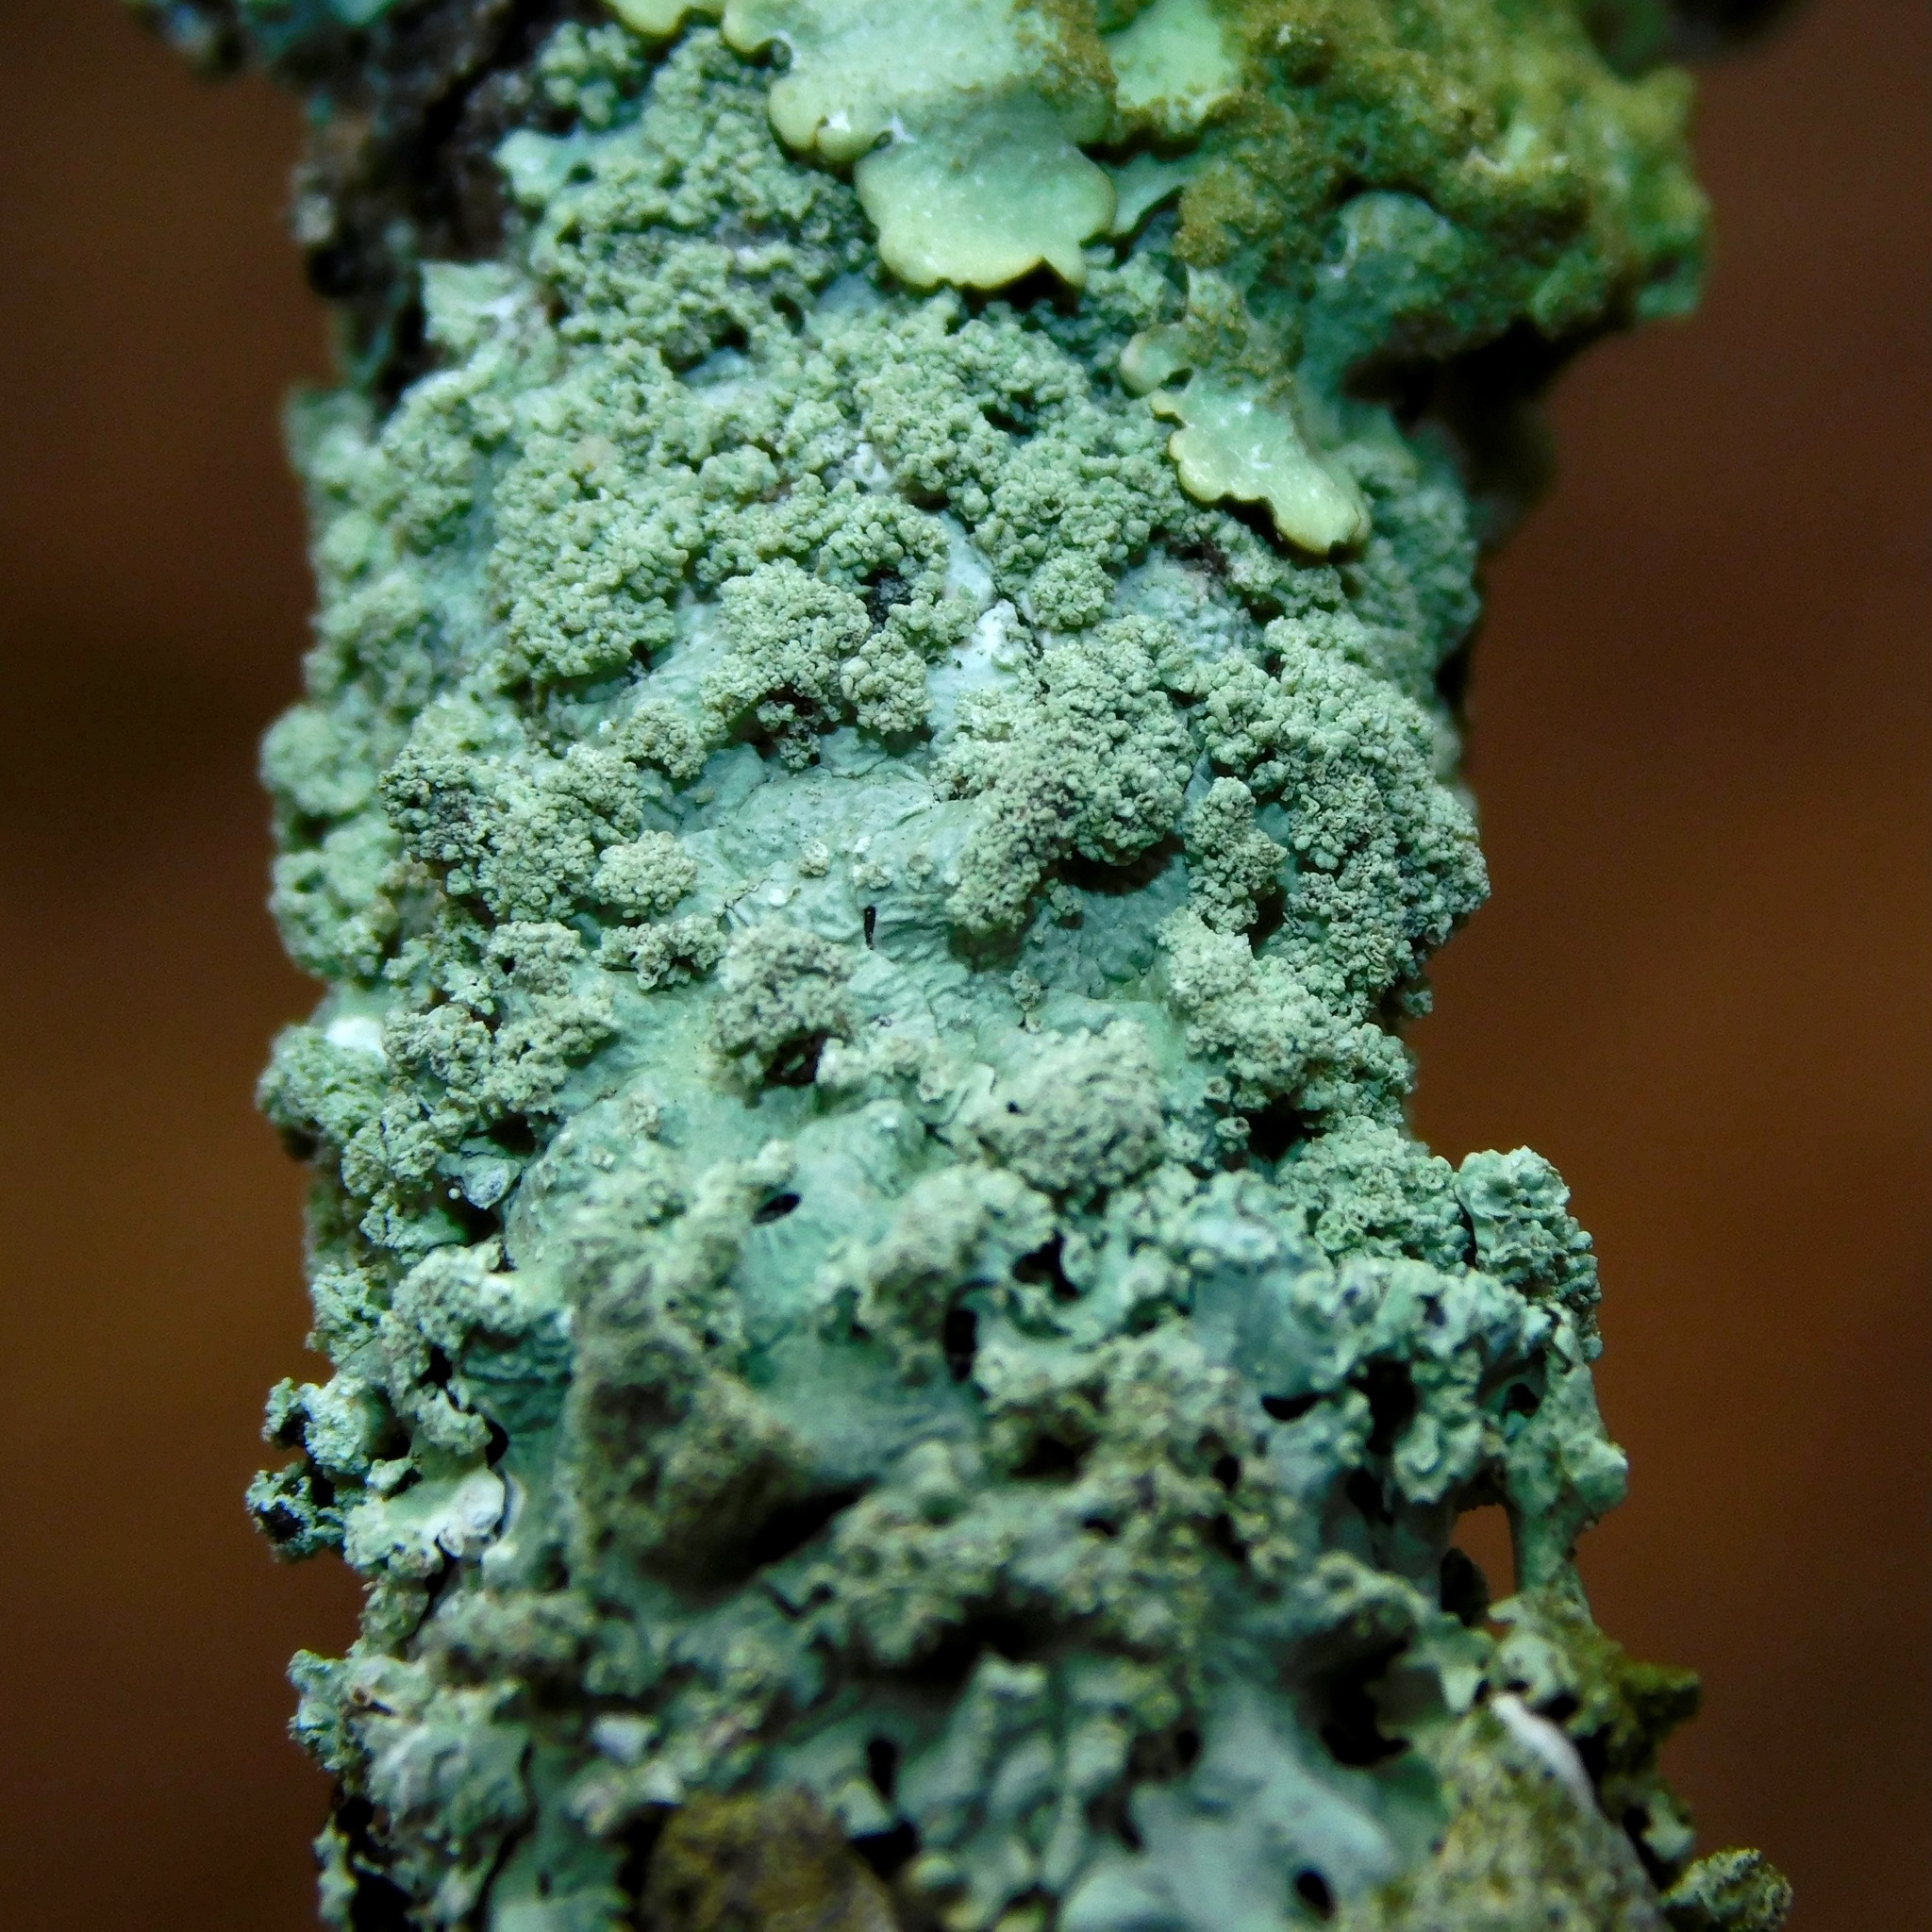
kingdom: Fungi
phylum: Ascomycota
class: Lecanoromycetes
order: Lecanorales
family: Parmeliaceae
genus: Hypotrachyna
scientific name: Hypotrachyna croceopustulata
